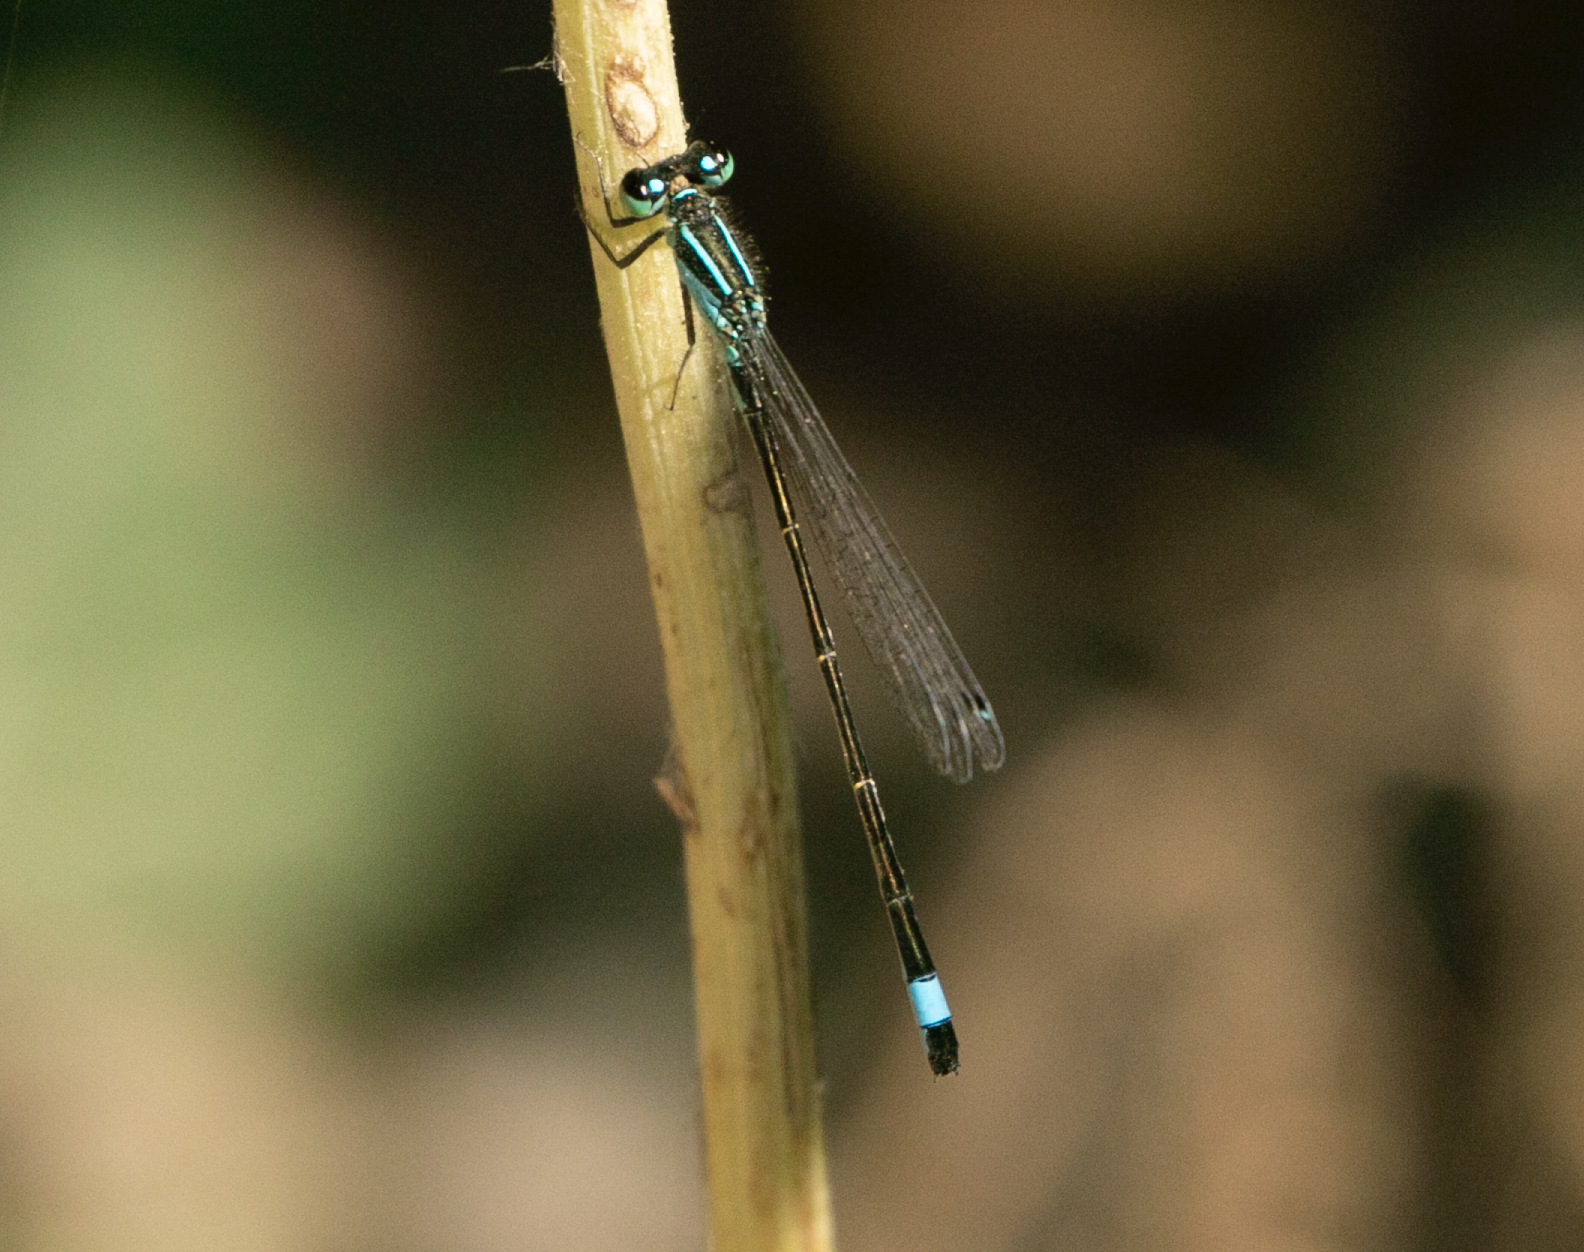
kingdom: Animalia
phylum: Arthropoda
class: Insecta
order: Odonata
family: Coenagrionidae
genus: Ischnura
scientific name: Ischnura elegans
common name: Blue-tailed damselfly
